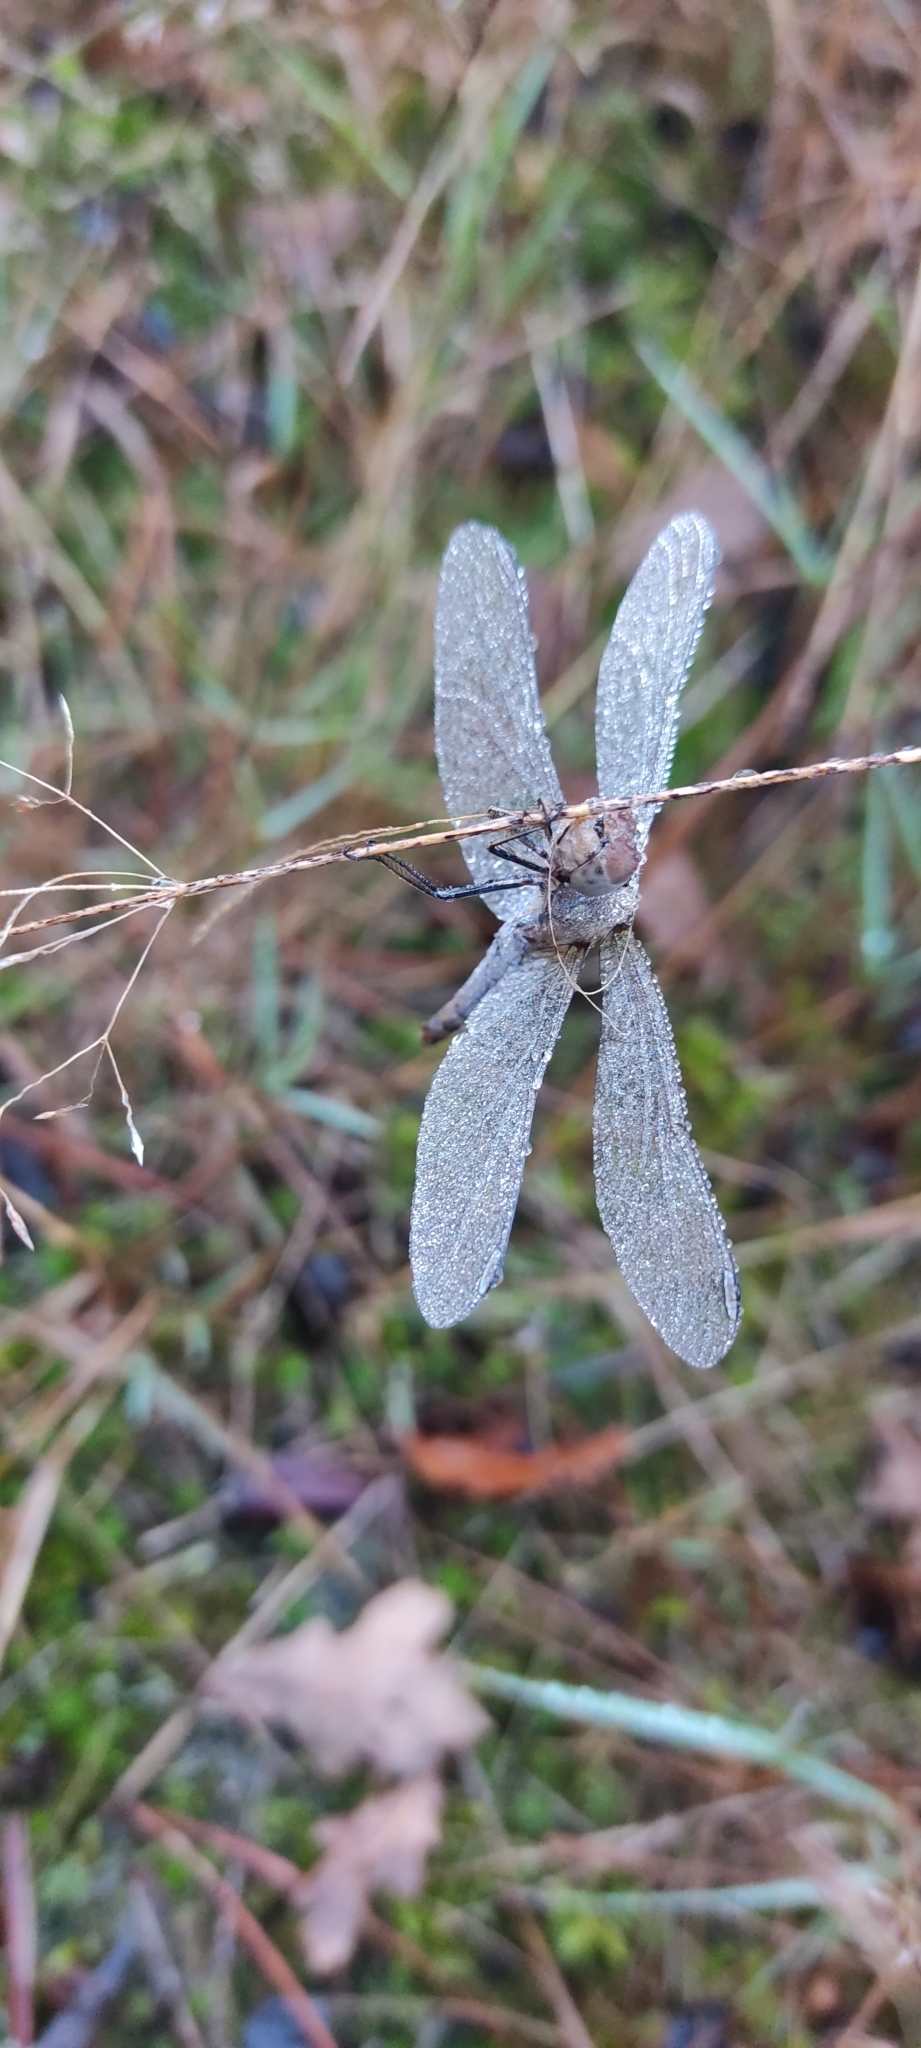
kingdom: Animalia
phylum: Arthropoda
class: Insecta
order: Odonata
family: Libellulidae
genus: Sympetrum
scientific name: Sympetrum striolatum
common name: Common darter
